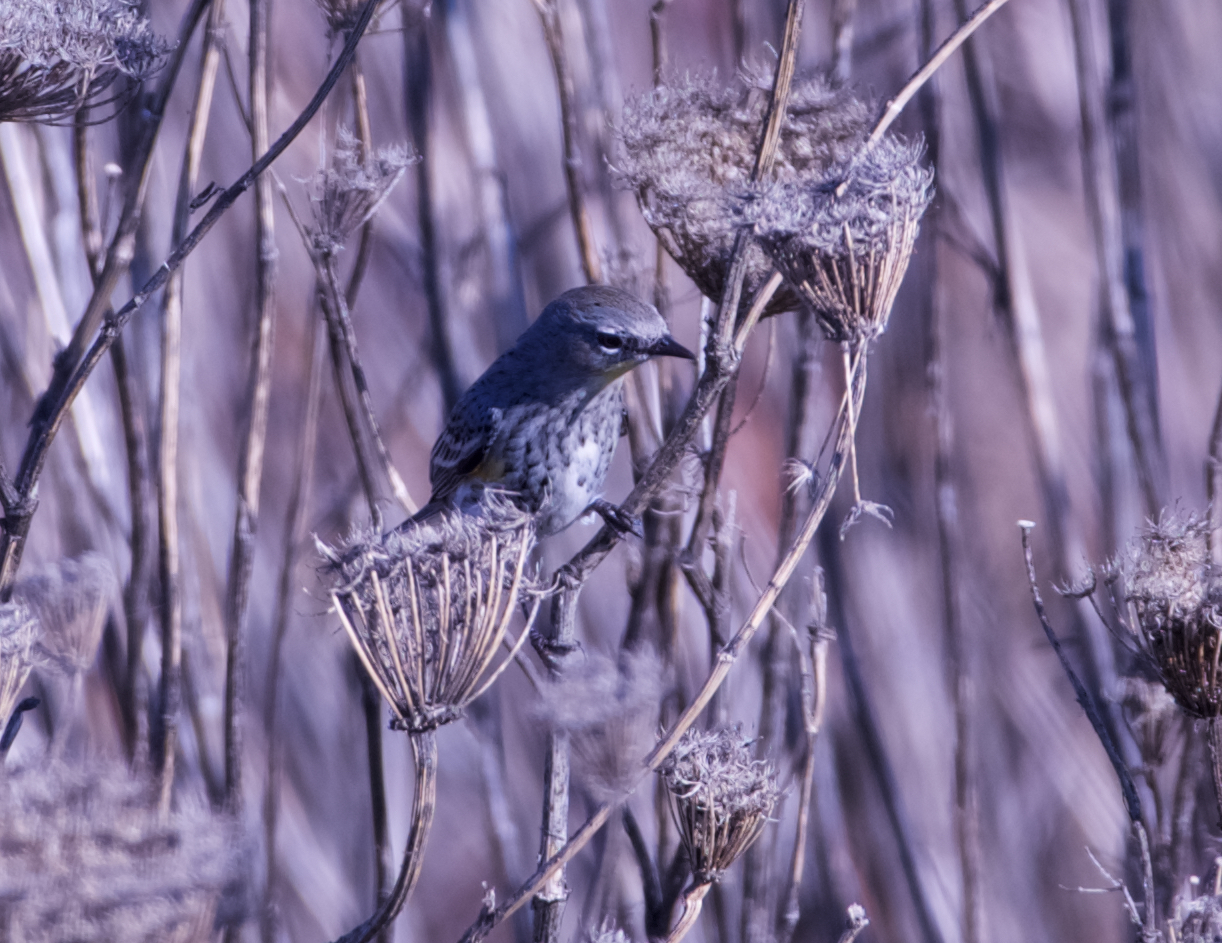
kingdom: Animalia
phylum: Chordata
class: Aves
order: Passeriformes
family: Parulidae
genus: Setophaga
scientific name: Setophaga coronata
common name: Myrtle warbler
